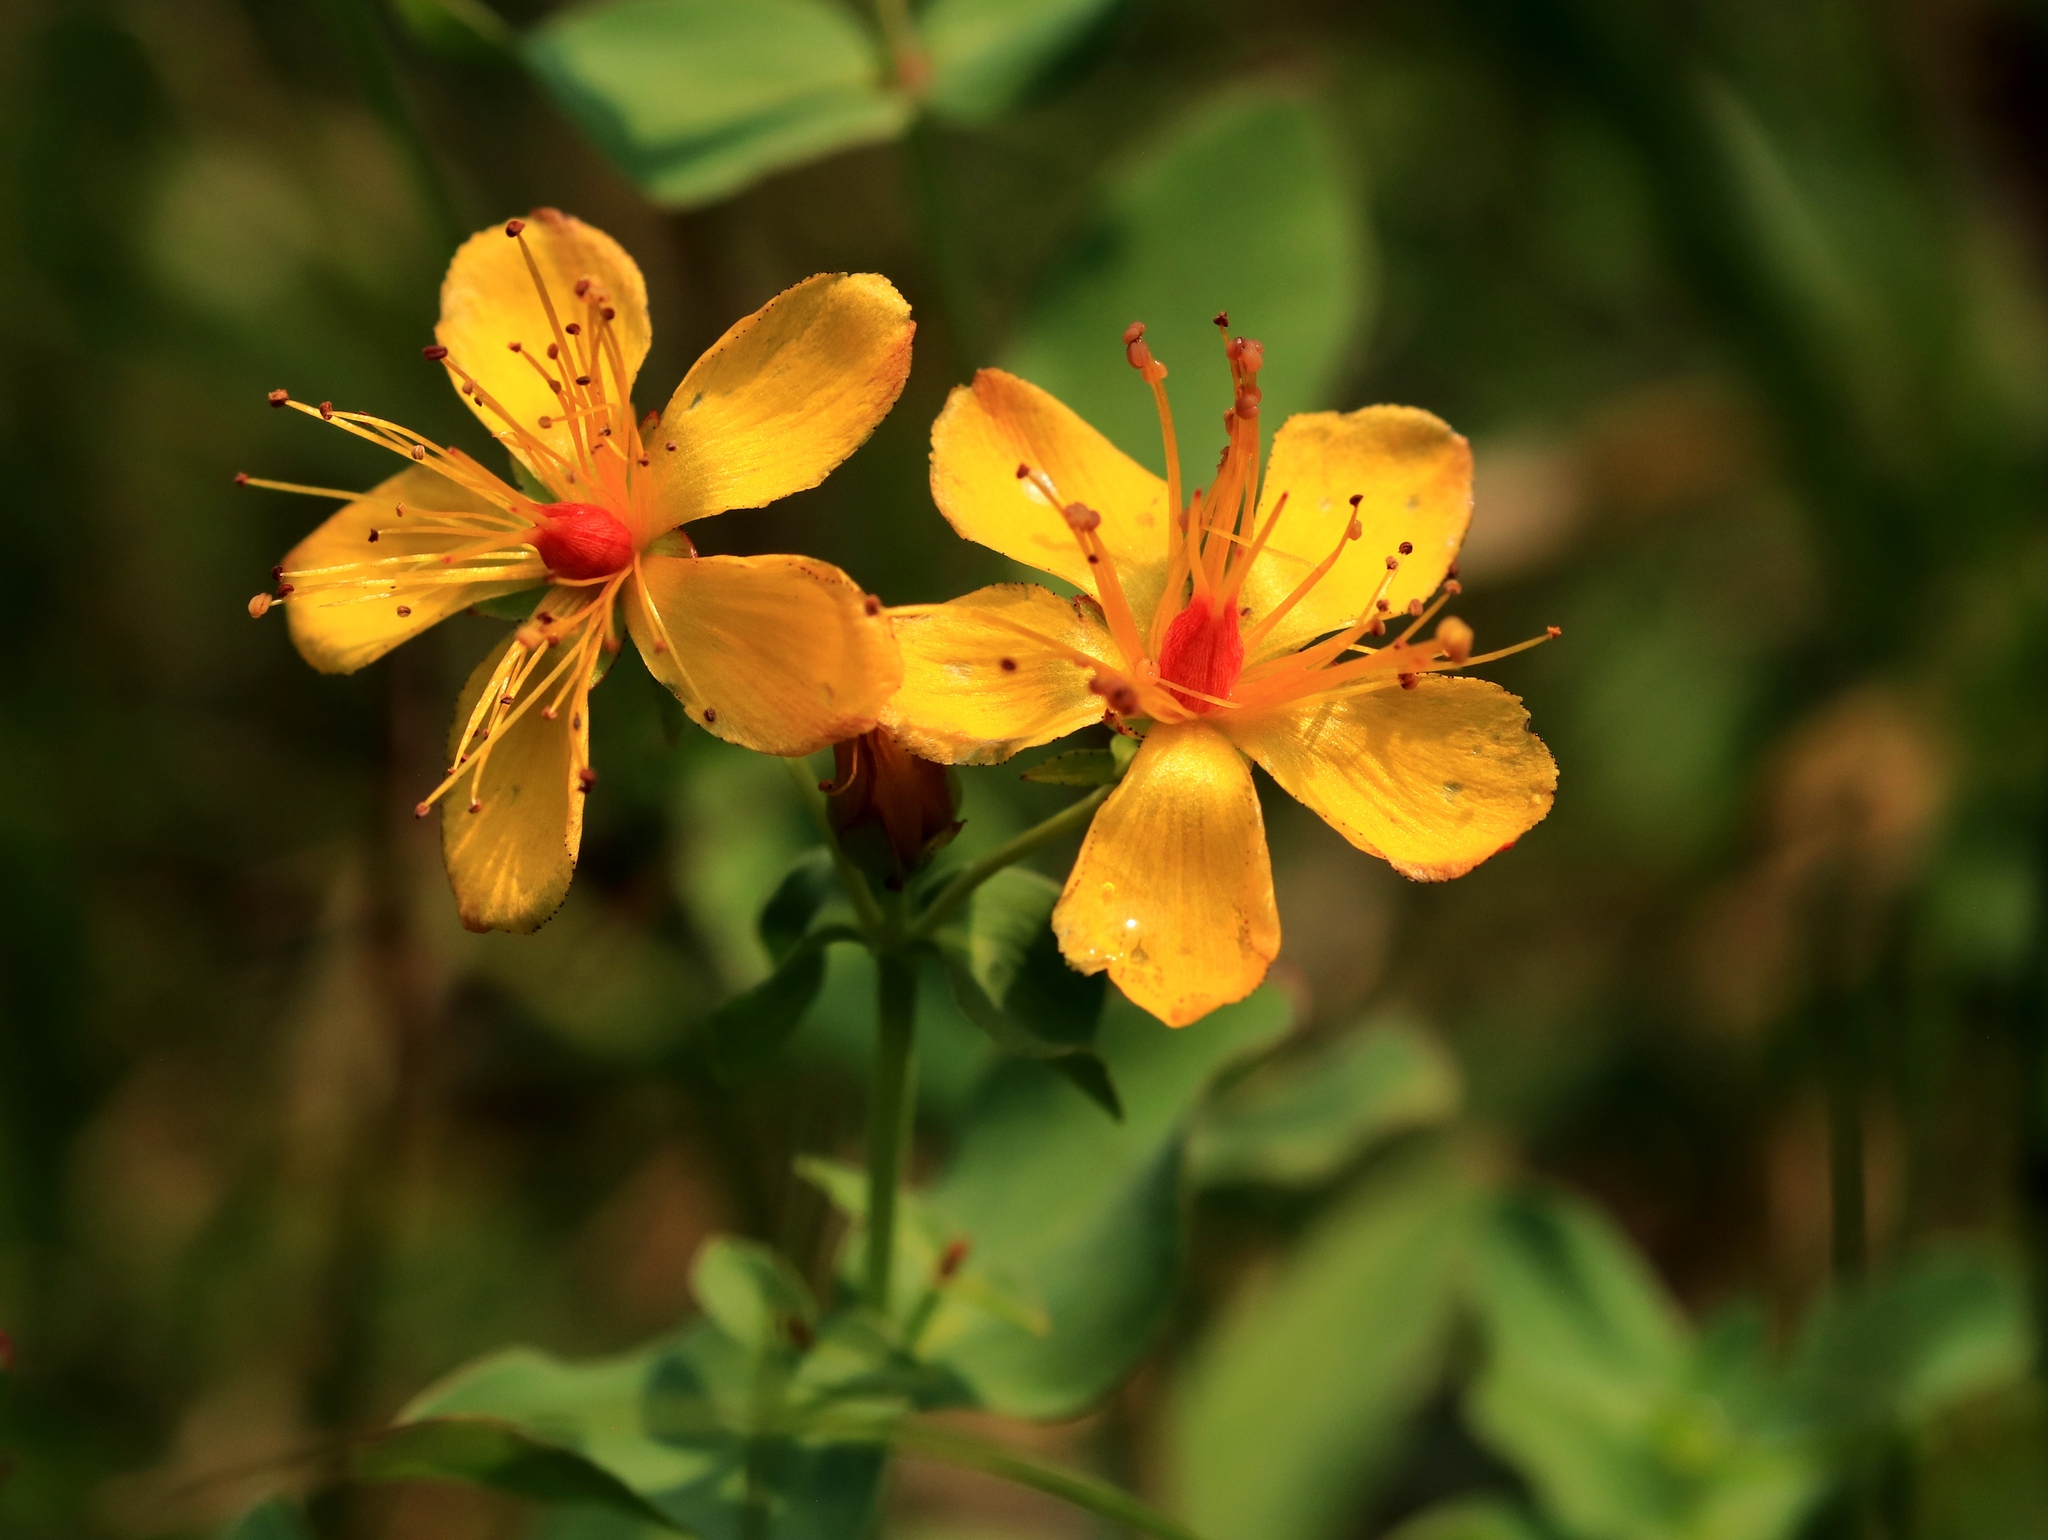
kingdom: Plantae
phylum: Tracheophyta
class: Magnoliopsida
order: Malpighiales
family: Hypericaceae
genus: Hypericum
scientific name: Hypericum scouleri
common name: Scouler's st. john's-wort
